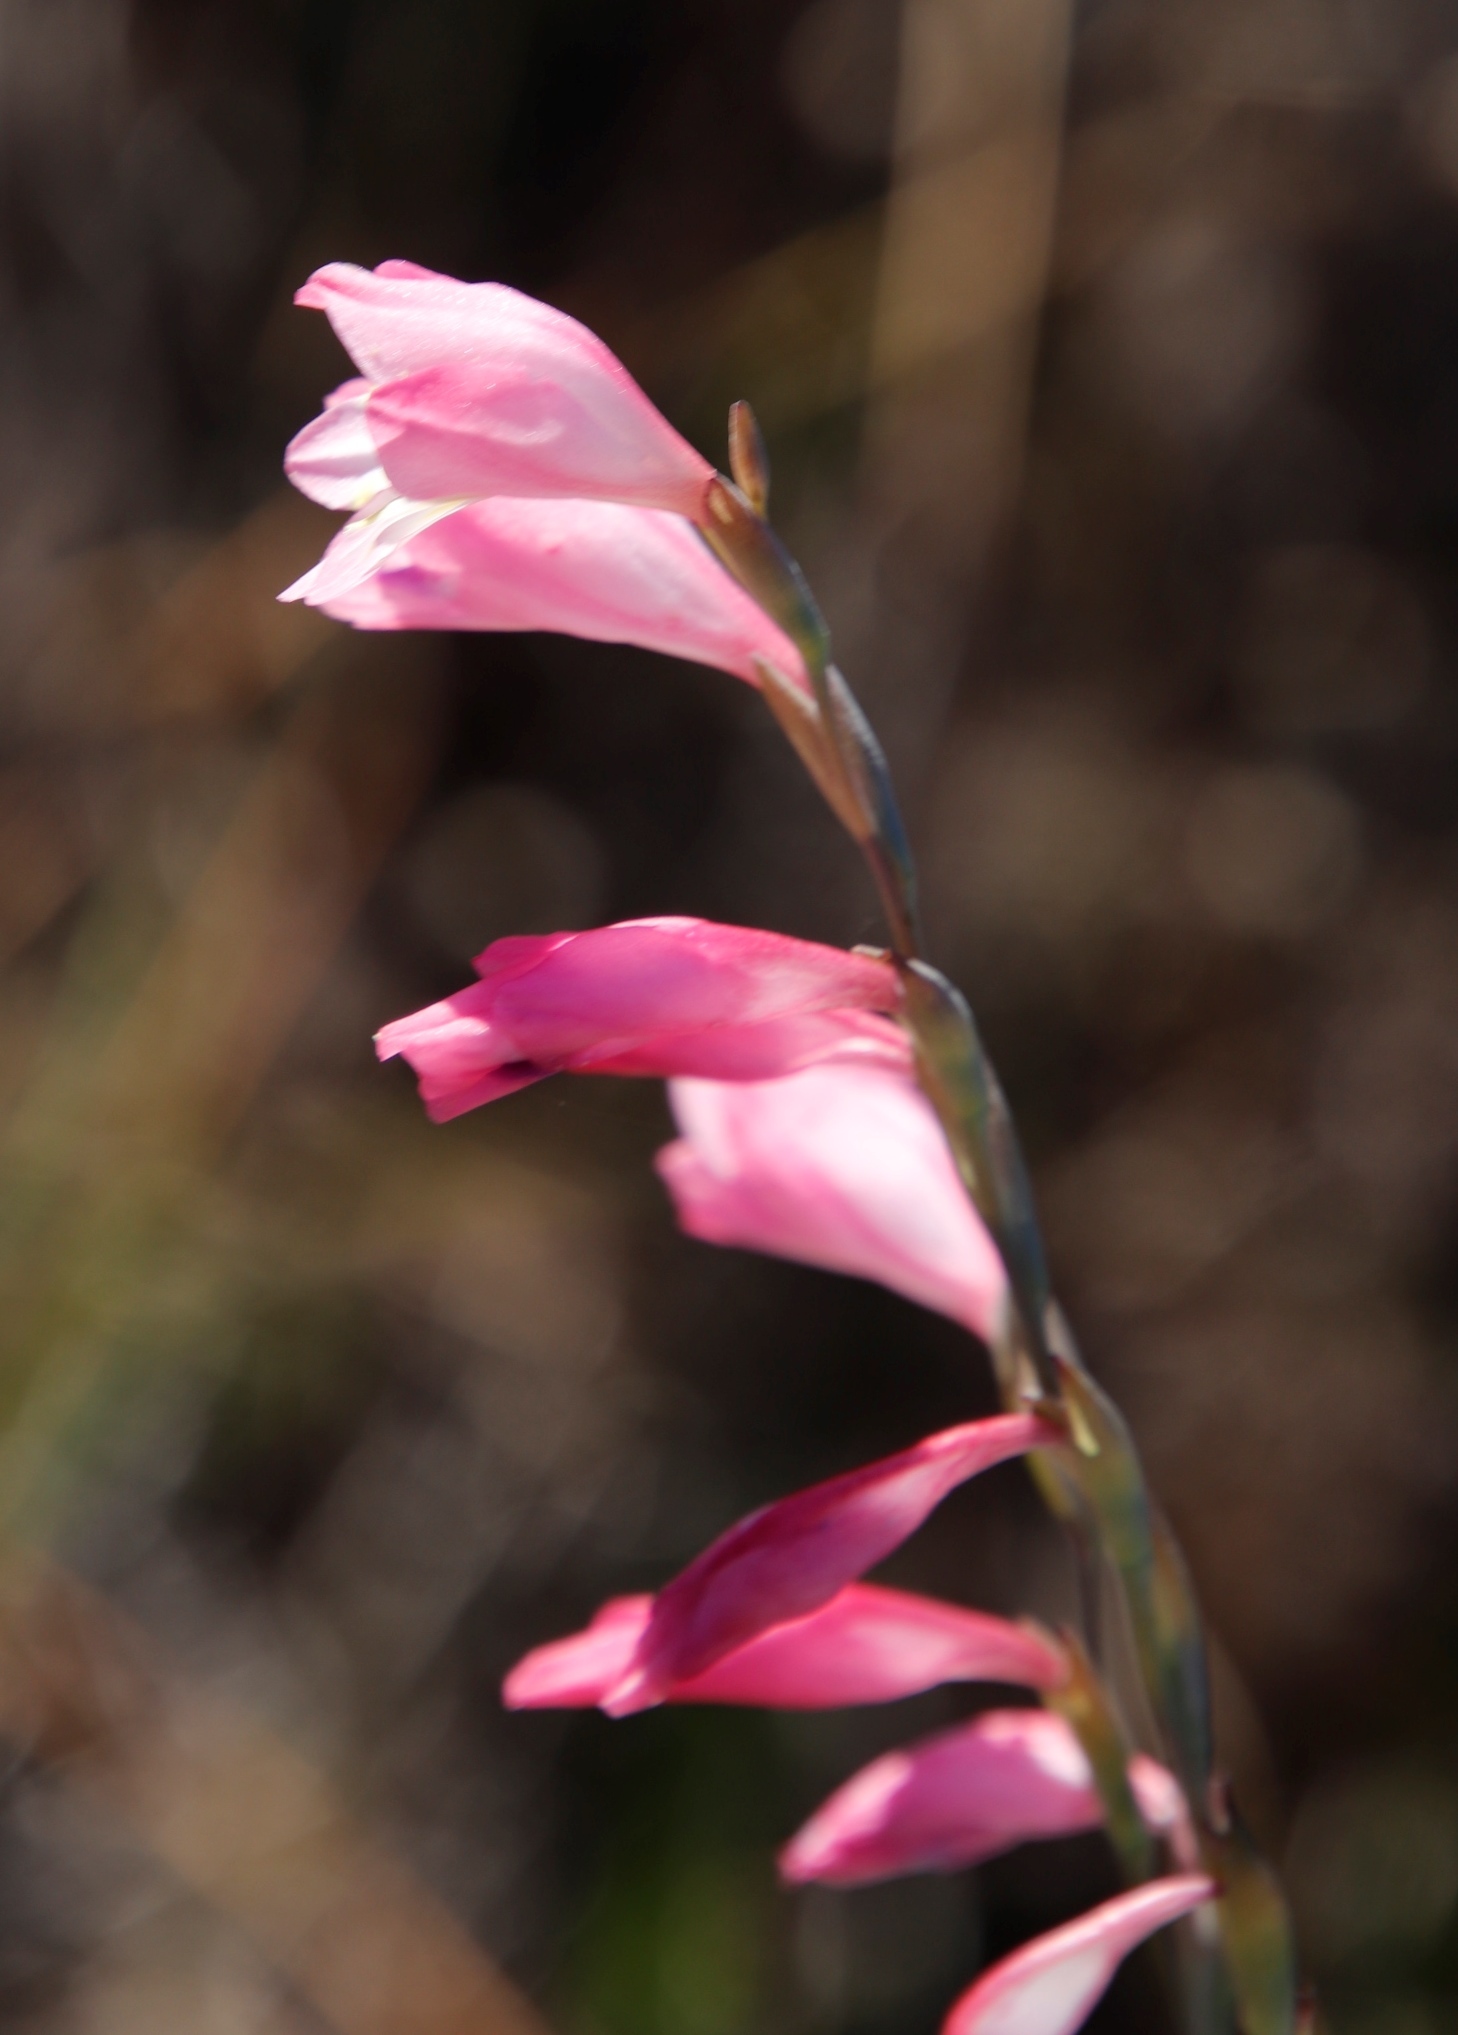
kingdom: Plantae
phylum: Tracheophyta
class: Liliopsida
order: Asparagales
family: Iridaceae
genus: Gladiolus
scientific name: Gladiolus brevifolius
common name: March pypie
